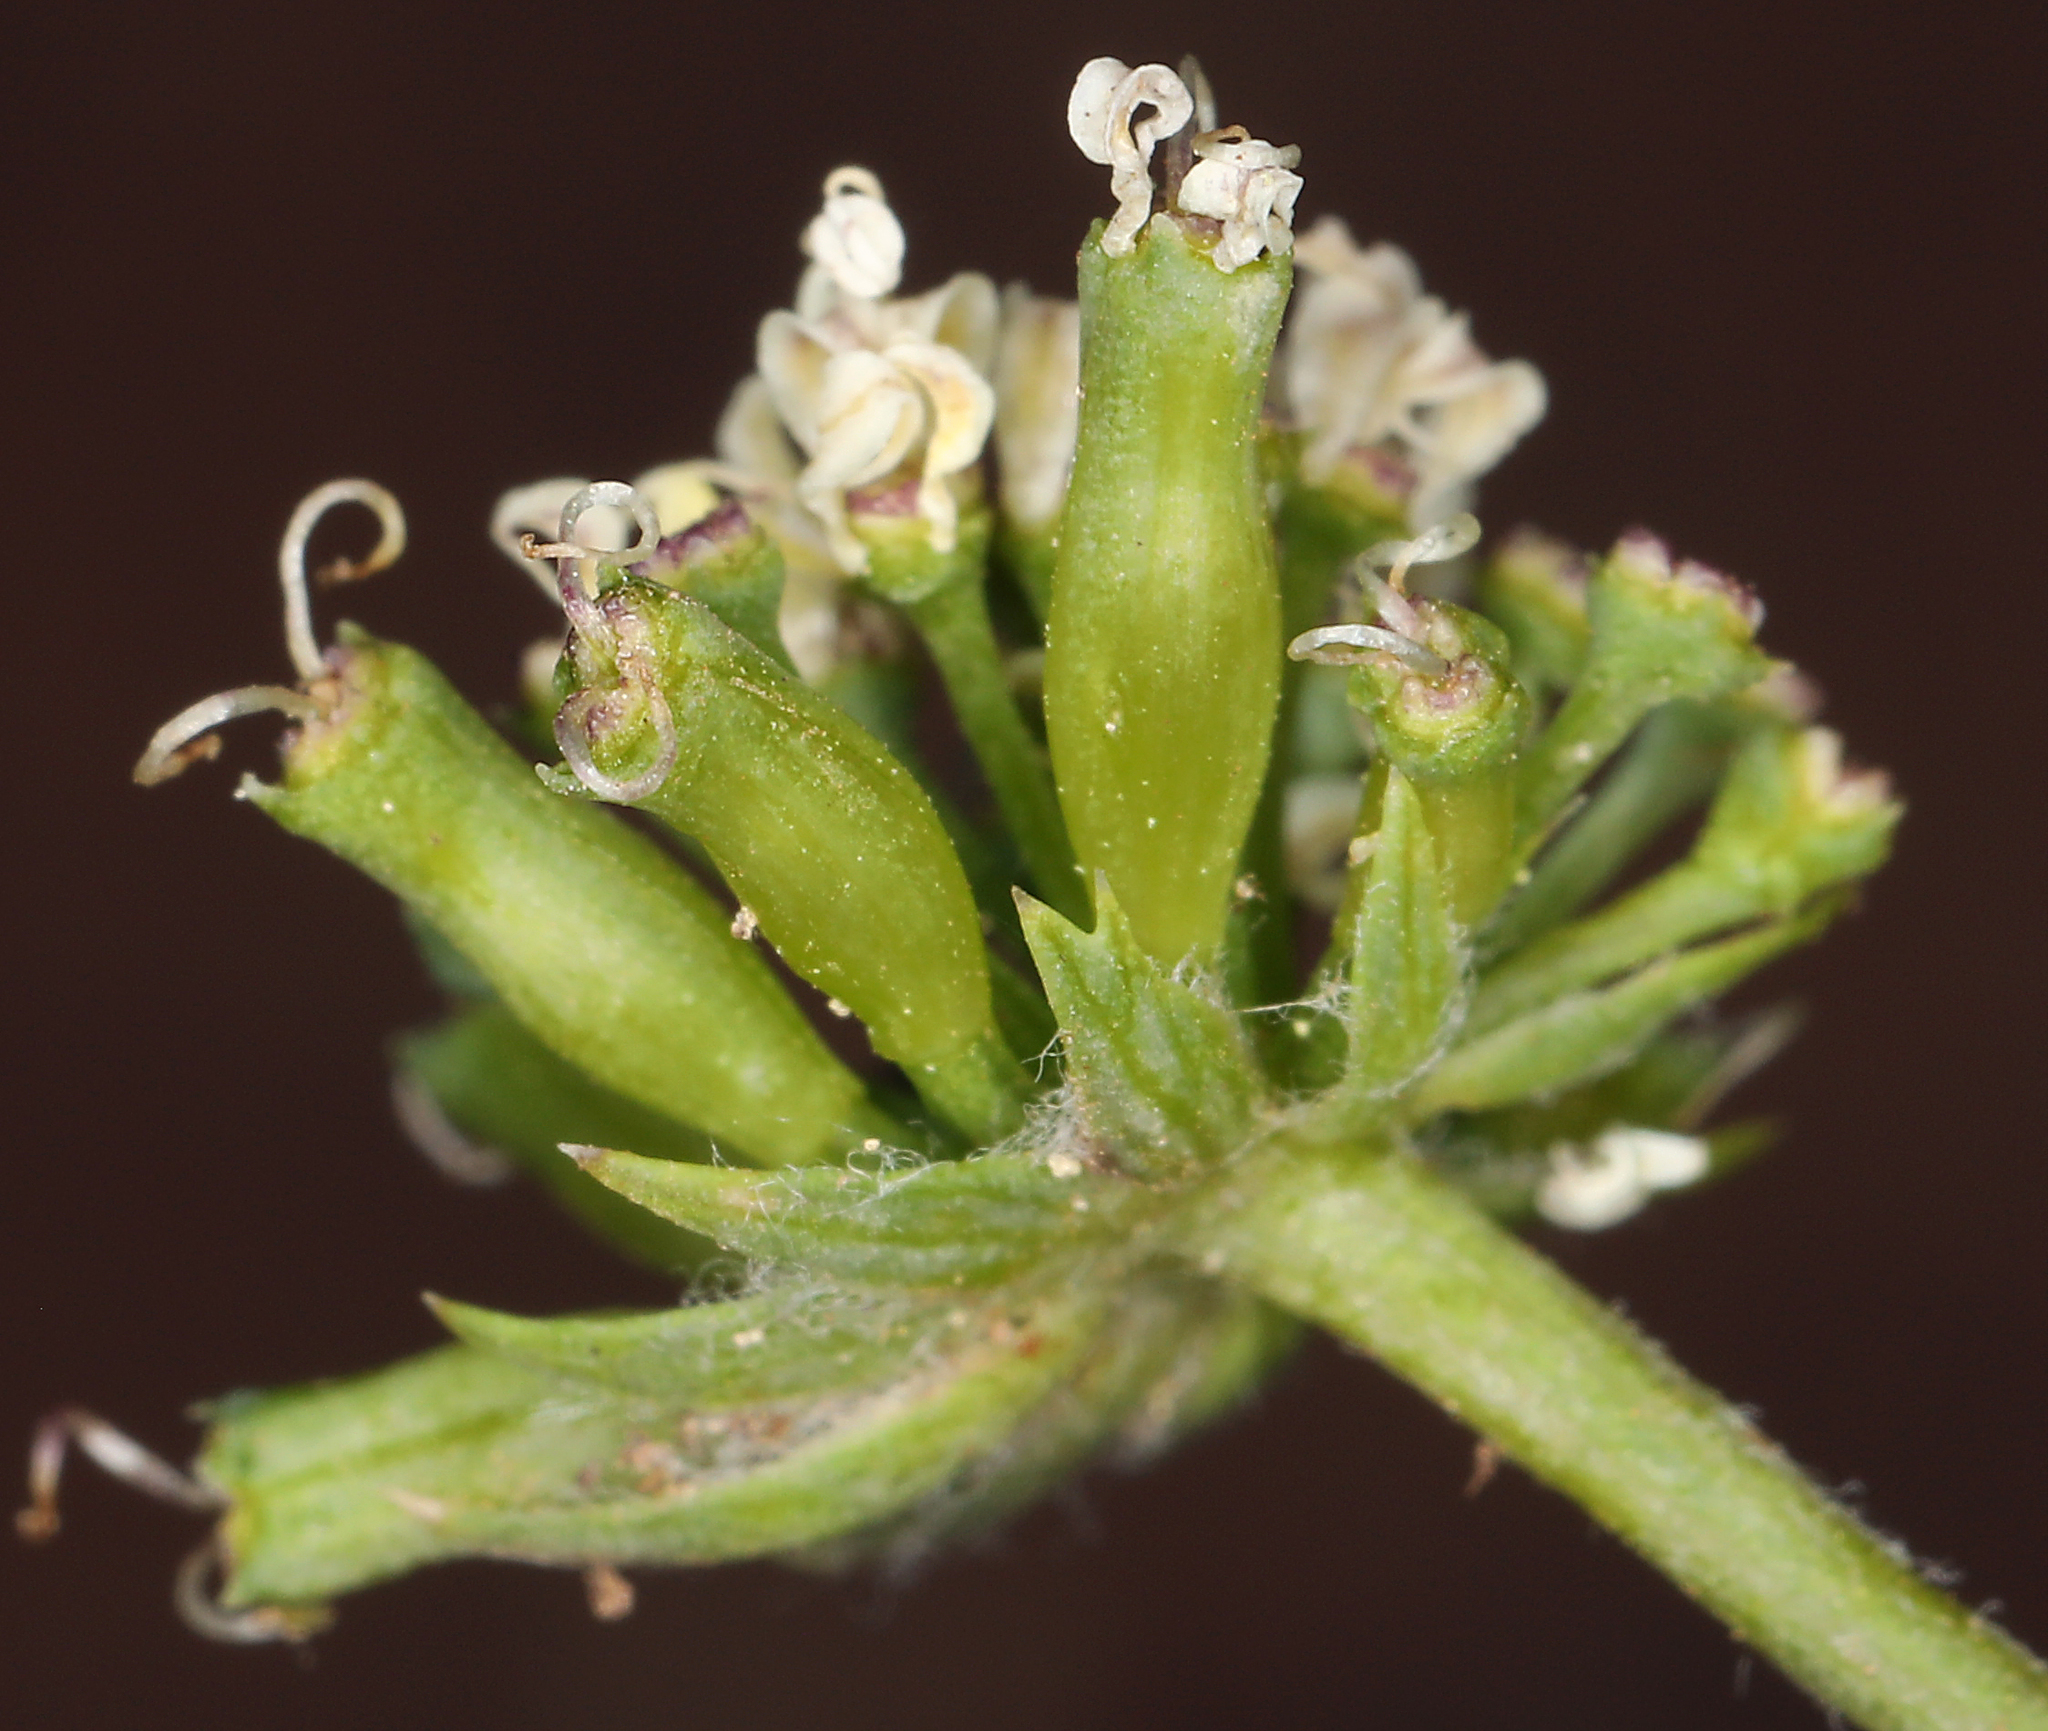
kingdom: Plantae
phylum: Tracheophyta
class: Magnoliopsida
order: Apiales
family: Apiaceae
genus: Lomatium
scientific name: Lomatium macrocarpum
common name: Big-seed biscuitroot
